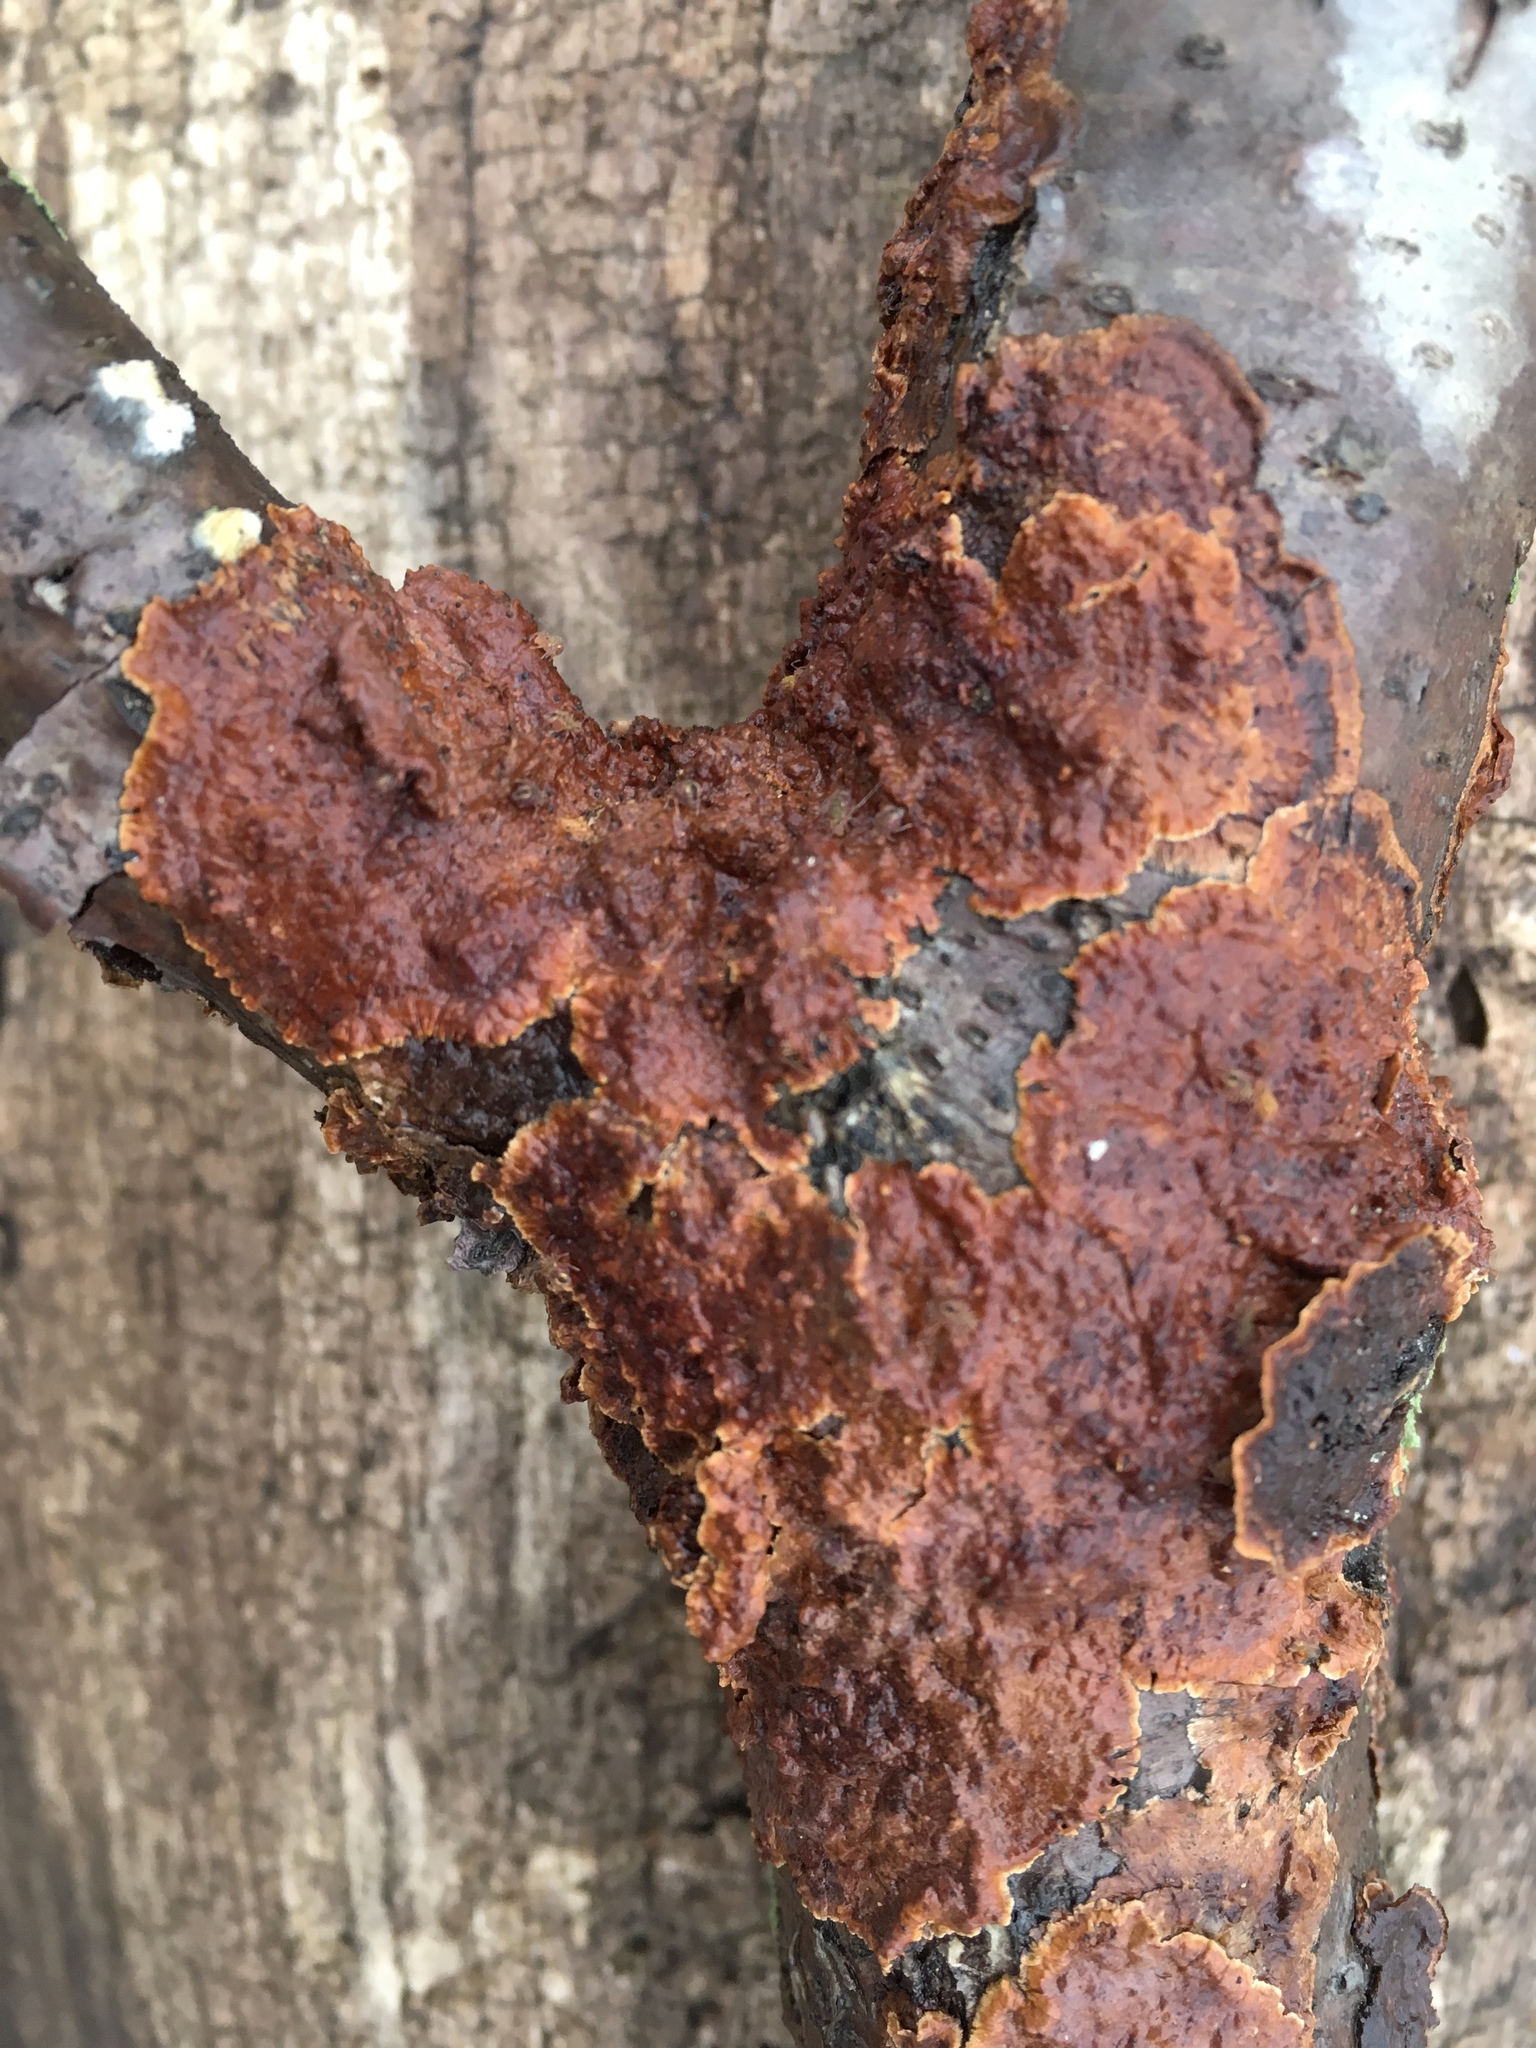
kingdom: Fungi
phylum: Basidiomycota
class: Agaricomycetes
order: Russulales
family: Stereaceae
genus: Stereum
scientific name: Stereum complicatum
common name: Crowded parchment
